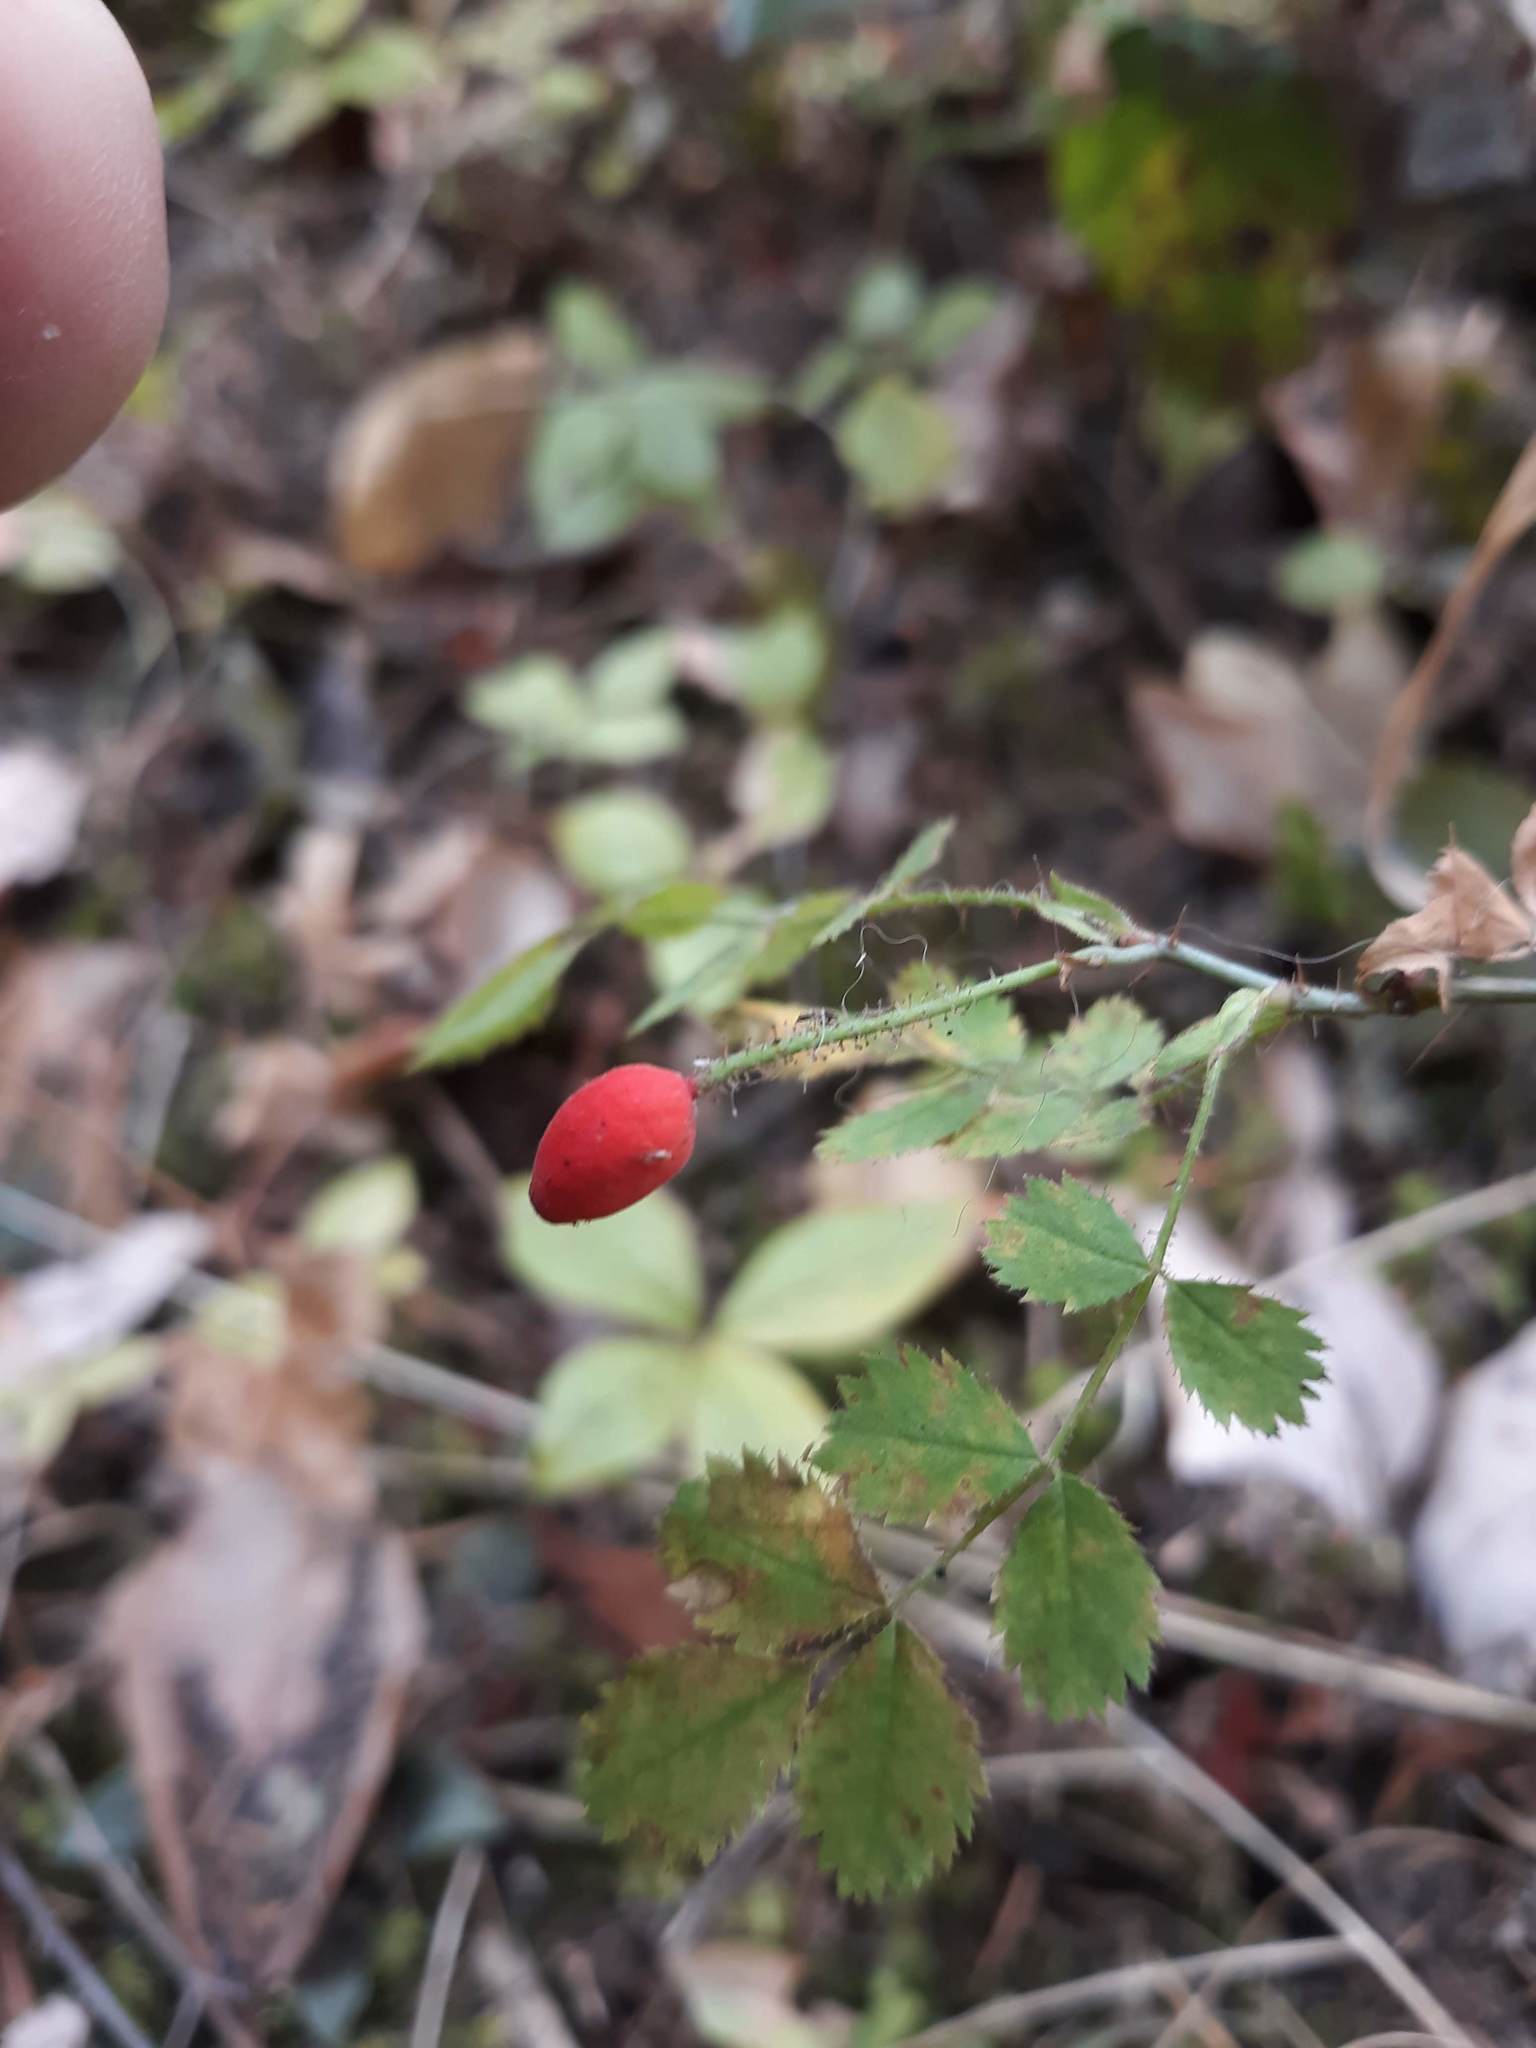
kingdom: Plantae
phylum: Tracheophyta
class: Magnoliopsida
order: Rosales
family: Rosaceae
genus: Rosa
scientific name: Rosa gymnocarpa
